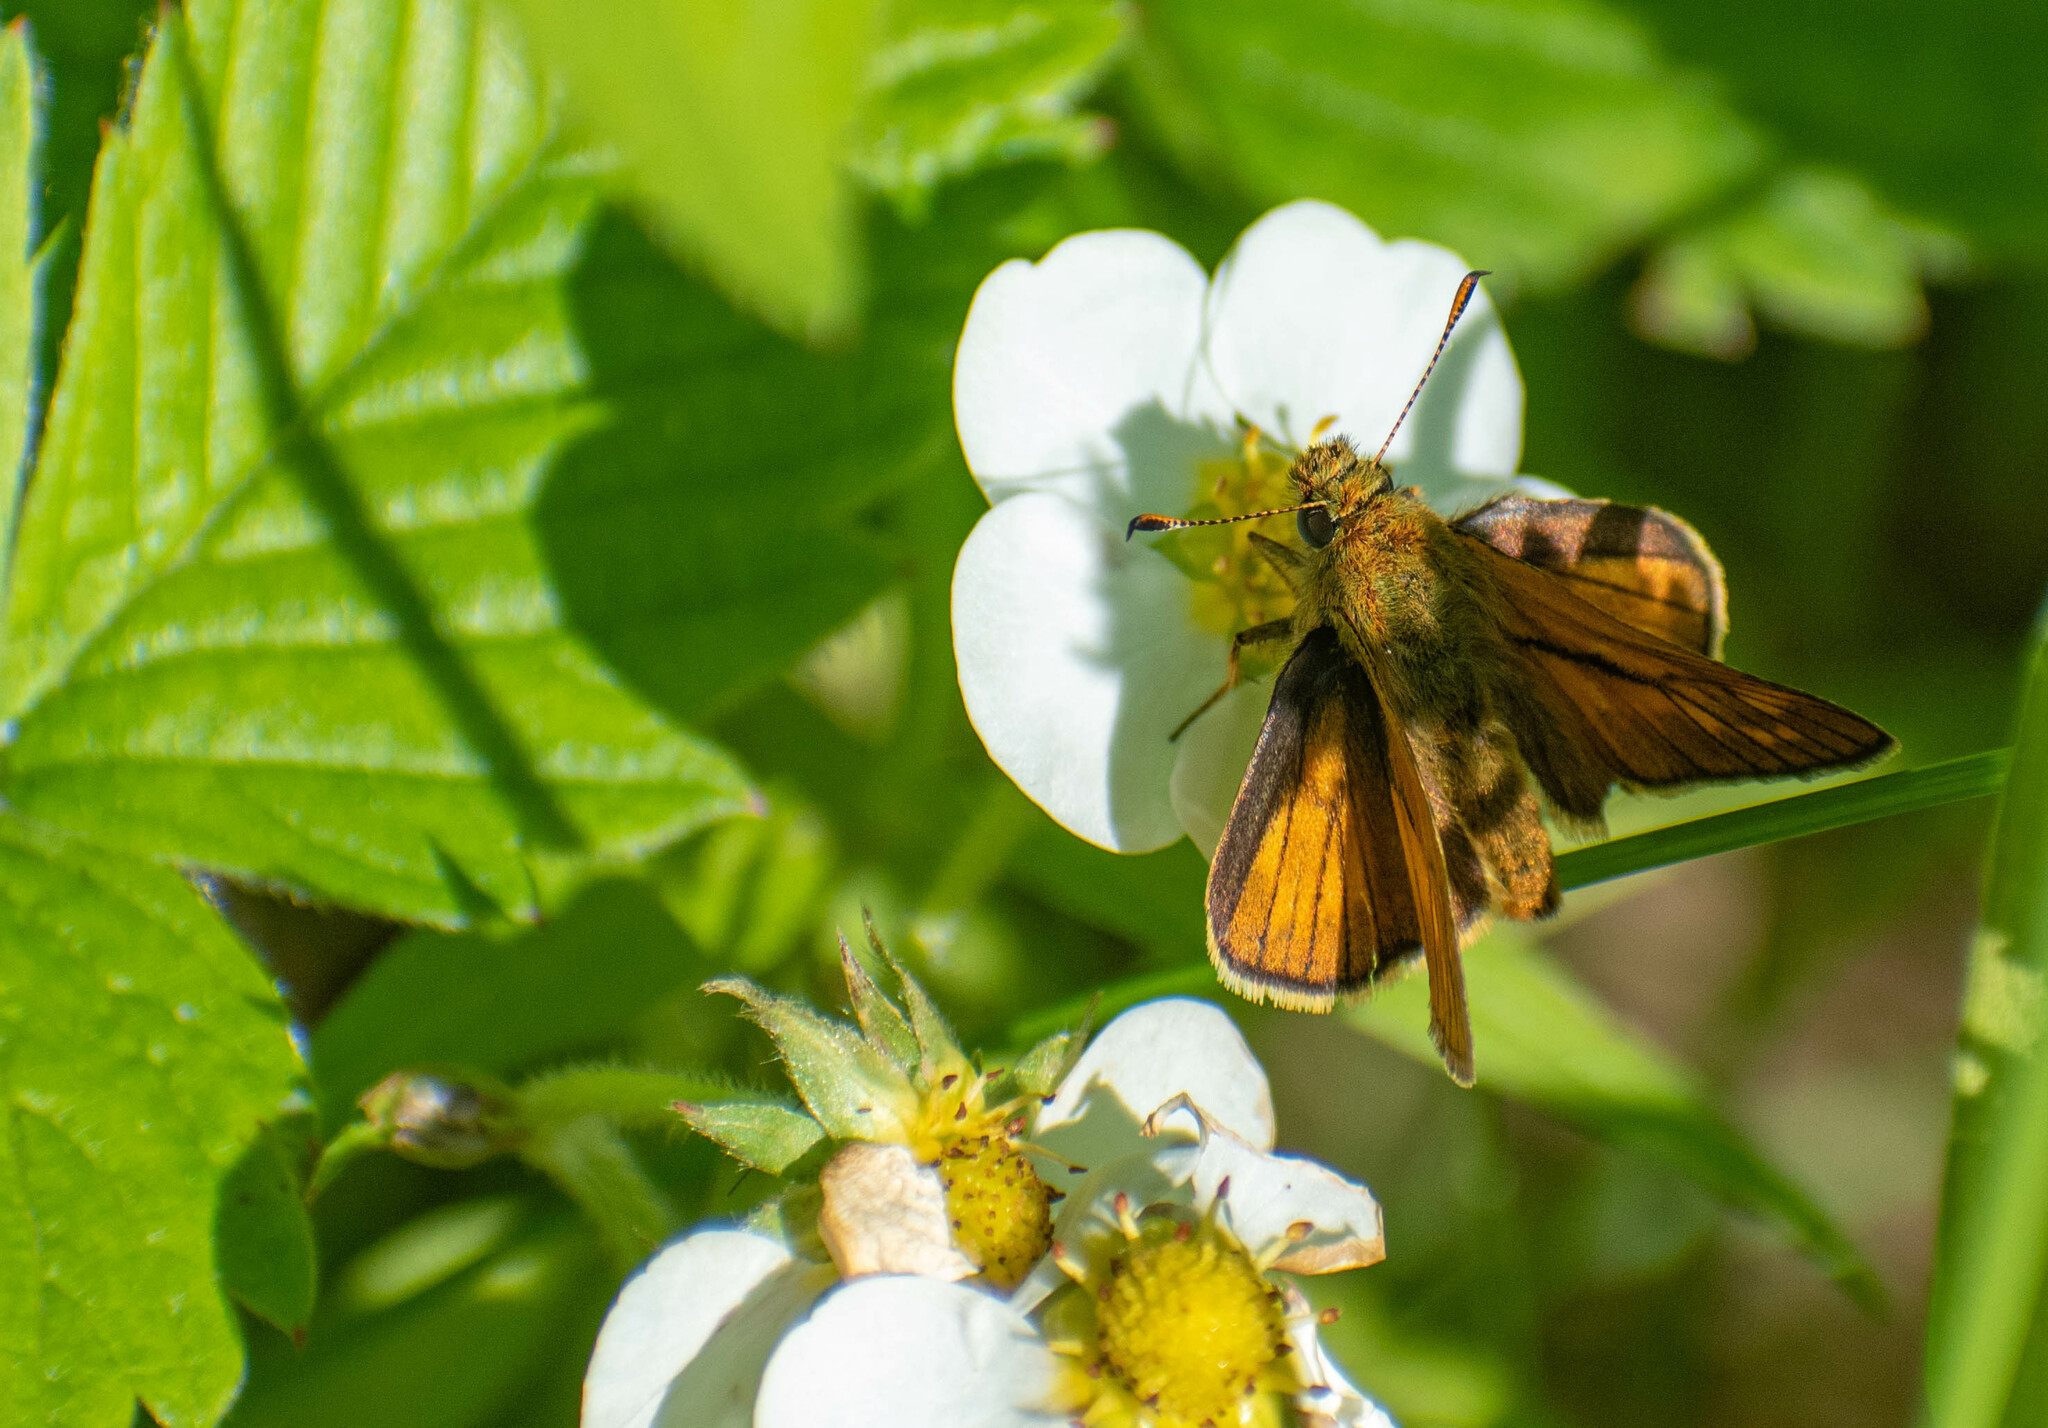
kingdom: Animalia
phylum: Arthropoda
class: Insecta
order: Lepidoptera
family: Hesperiidae
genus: Ochlodes
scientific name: Ochlodes venata
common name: Large skipper
